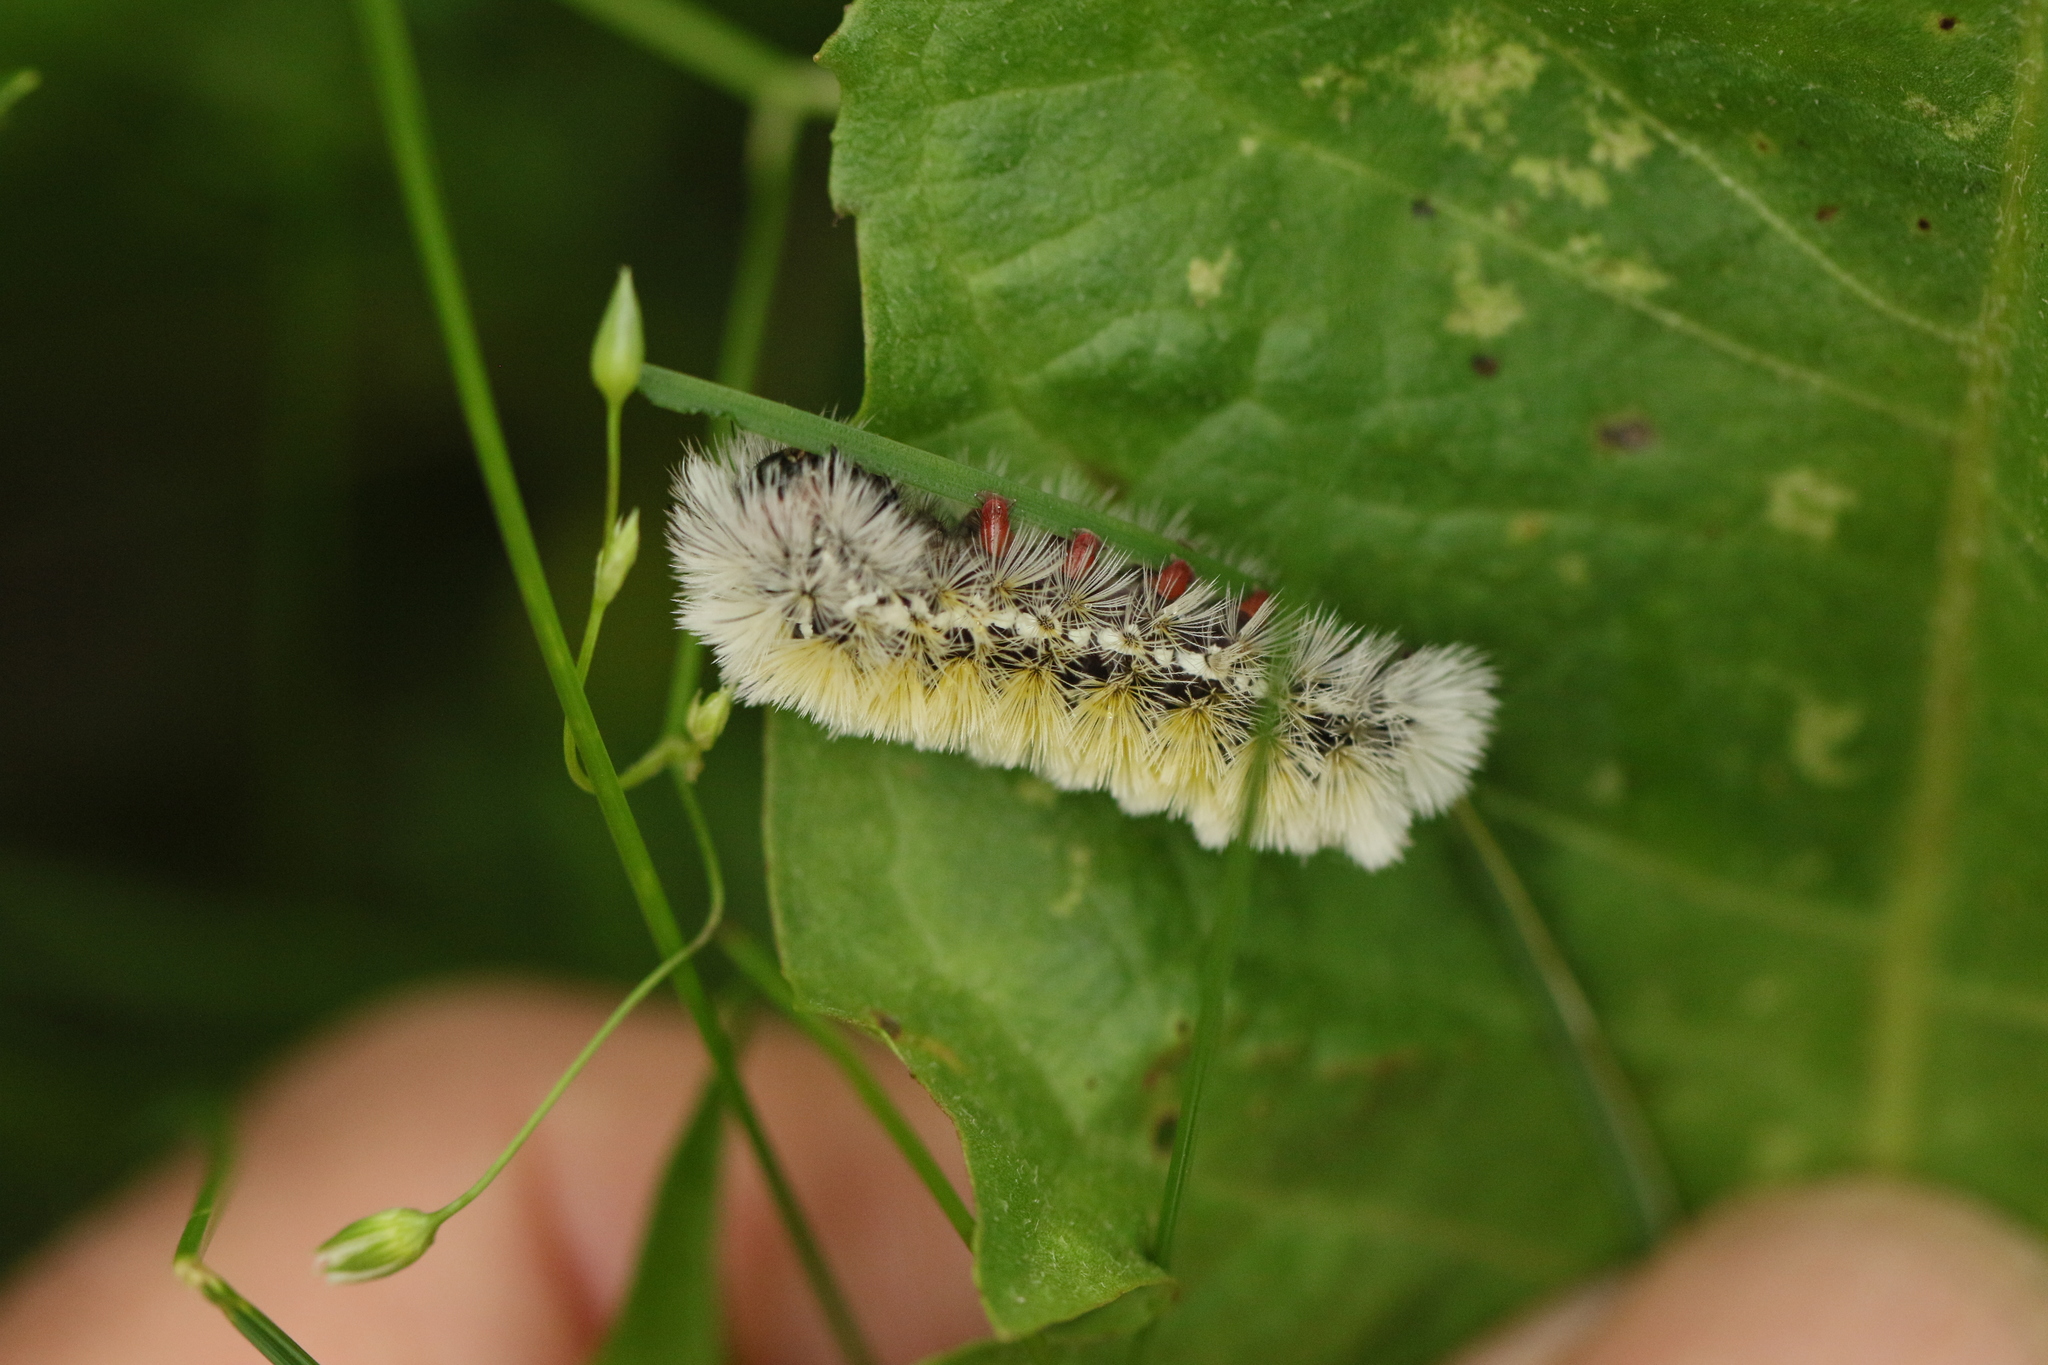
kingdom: Animalia
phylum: Arthropoda
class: Insecta
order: Lepidoptera
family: Erebidae
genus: Ctenucha
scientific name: Ctenucha virginica
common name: Virginia ctenucha moth
